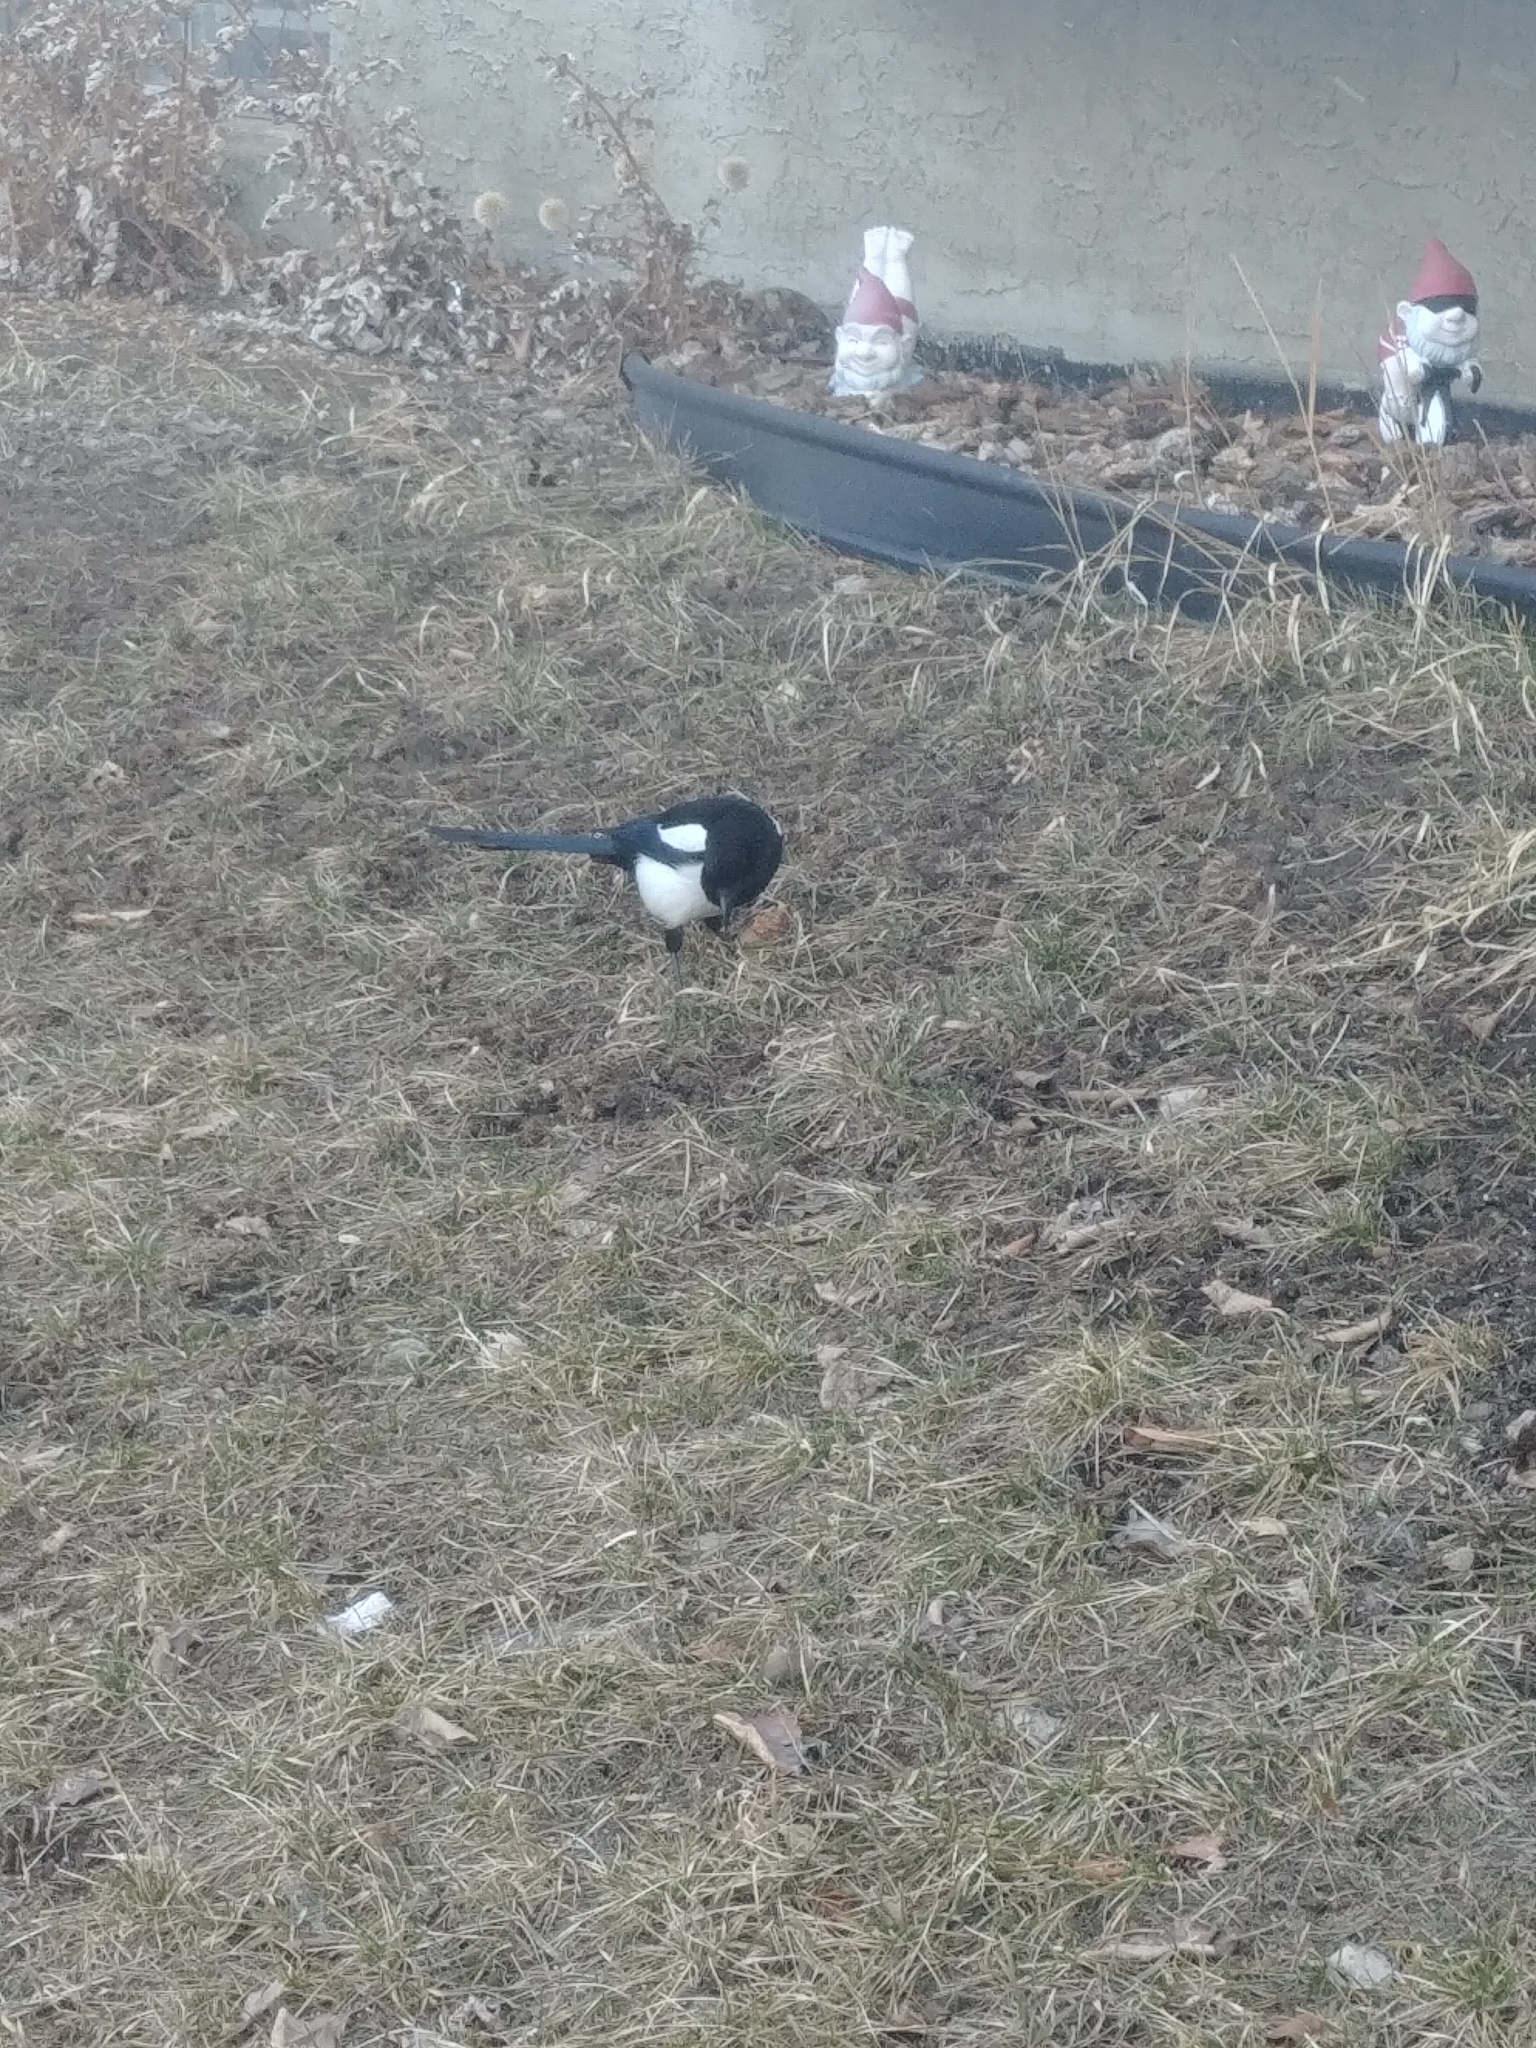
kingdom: Animalia
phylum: Chordata
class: Aves
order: Passeriformes
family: Corvidae
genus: Pica
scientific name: Pica hudsonia
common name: Black-billed magpie
